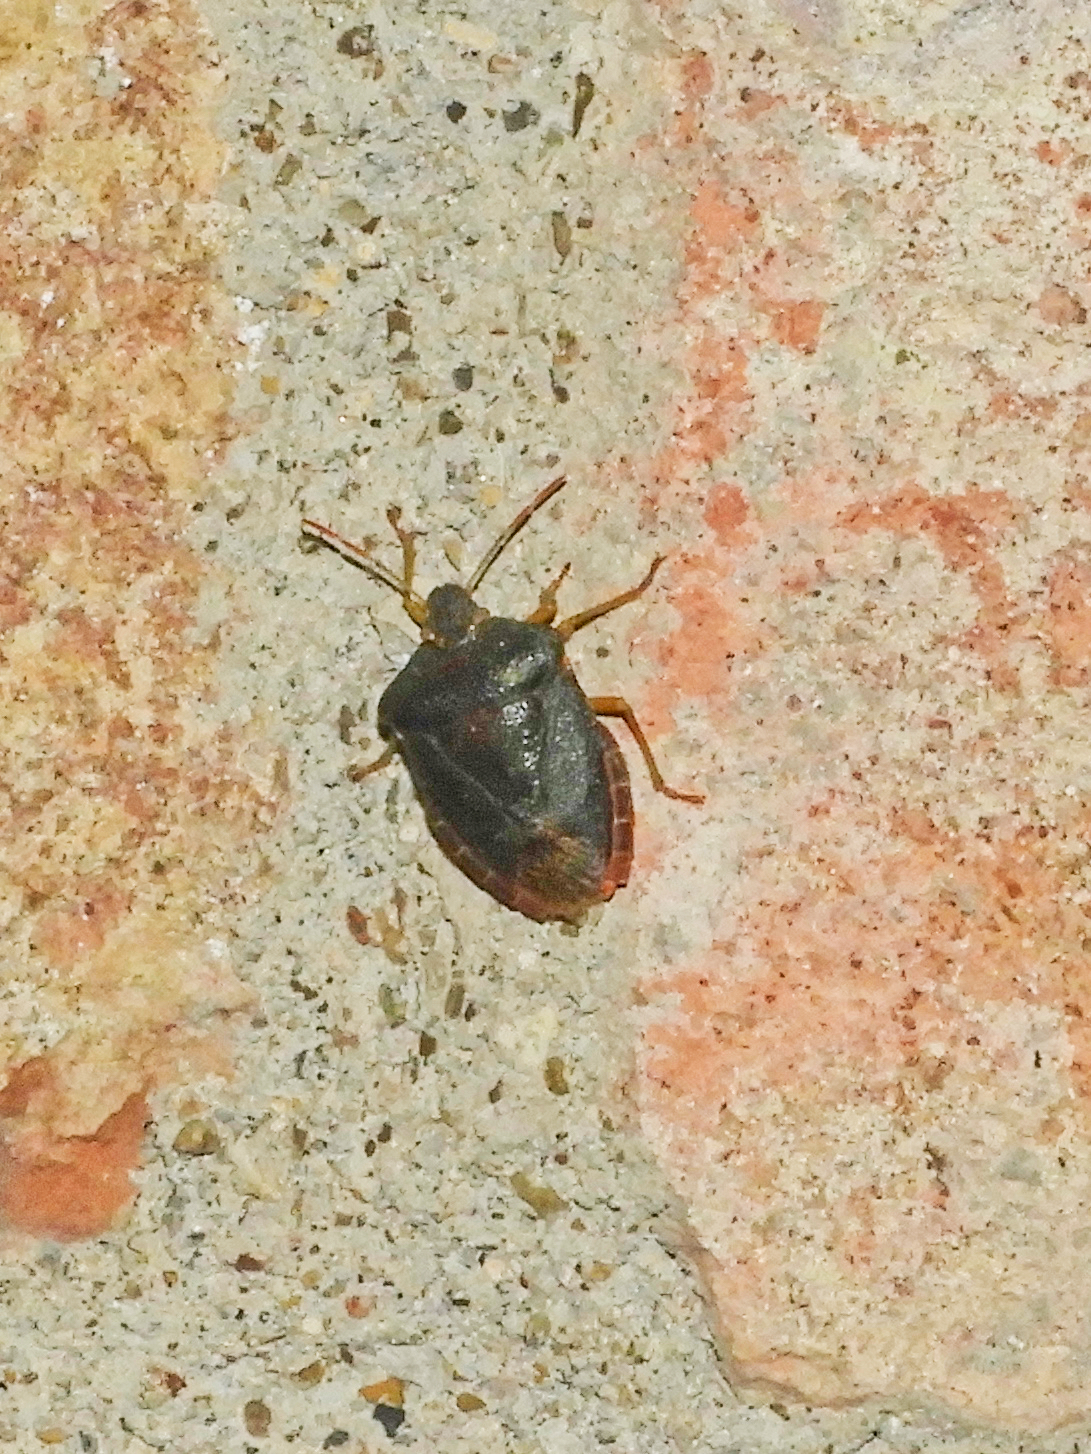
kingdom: Animalia
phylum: Arthropoda
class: Insecta
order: Hemiptera
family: Pentatomidae
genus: Palomena
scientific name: Palomena prasina
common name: Green shieldbug
